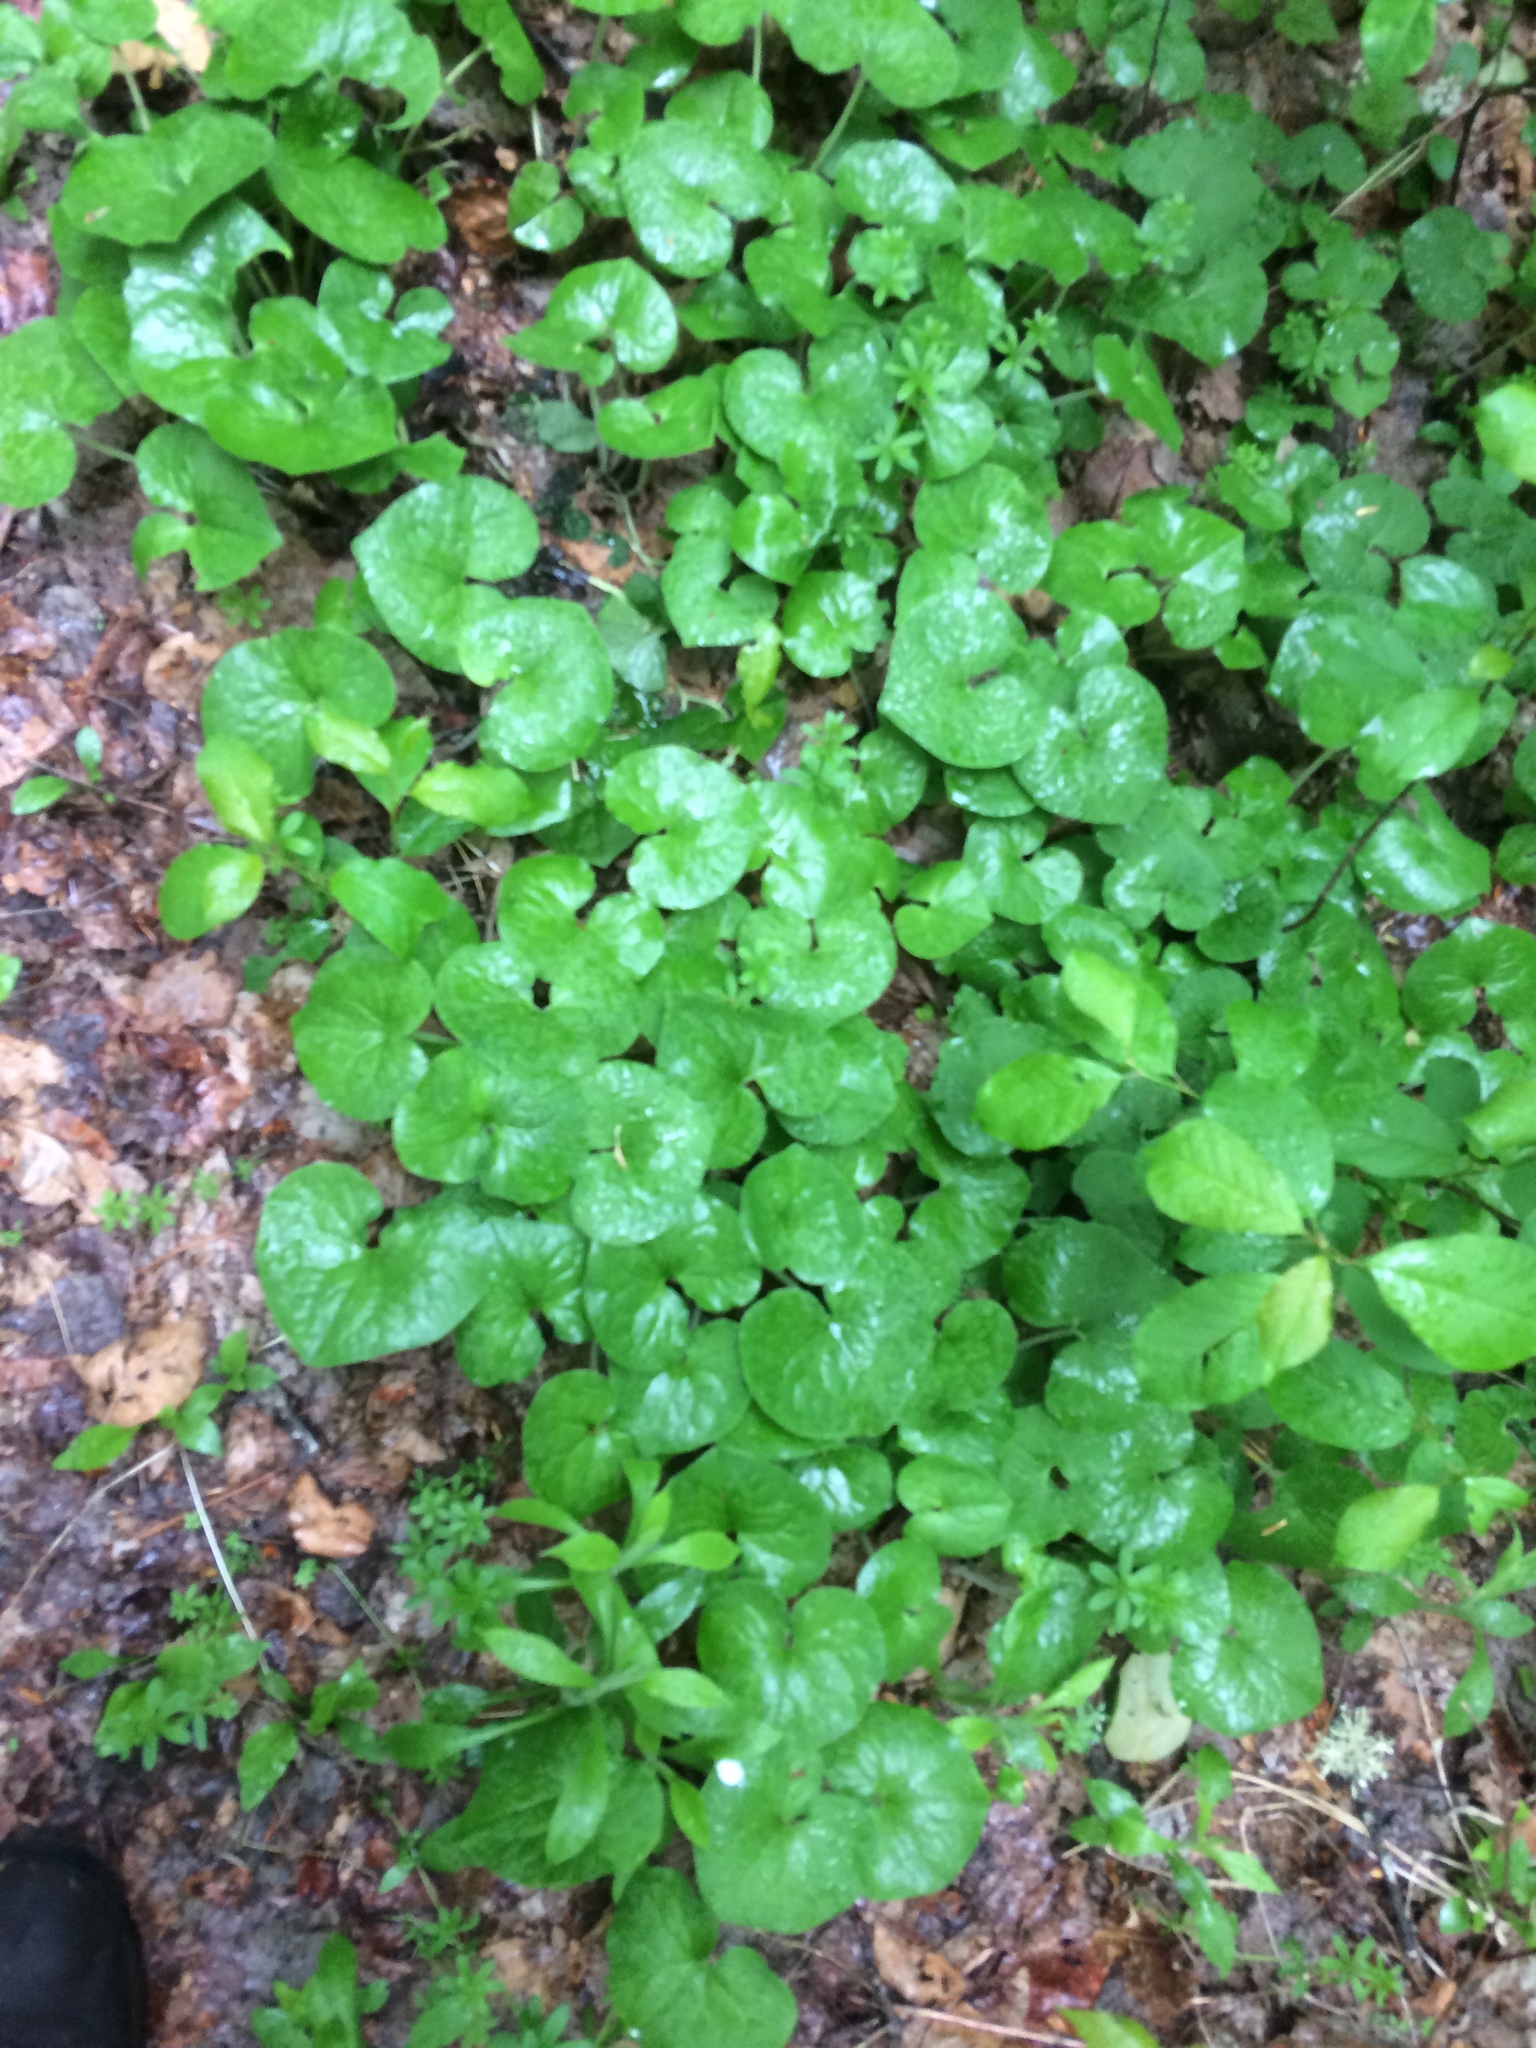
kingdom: Plantae
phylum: Tracheophyta
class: Magnoliopsida
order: Piperales
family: Aristolochiaceae
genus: Asarum
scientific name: Asarum canadense
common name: Wild ginger
